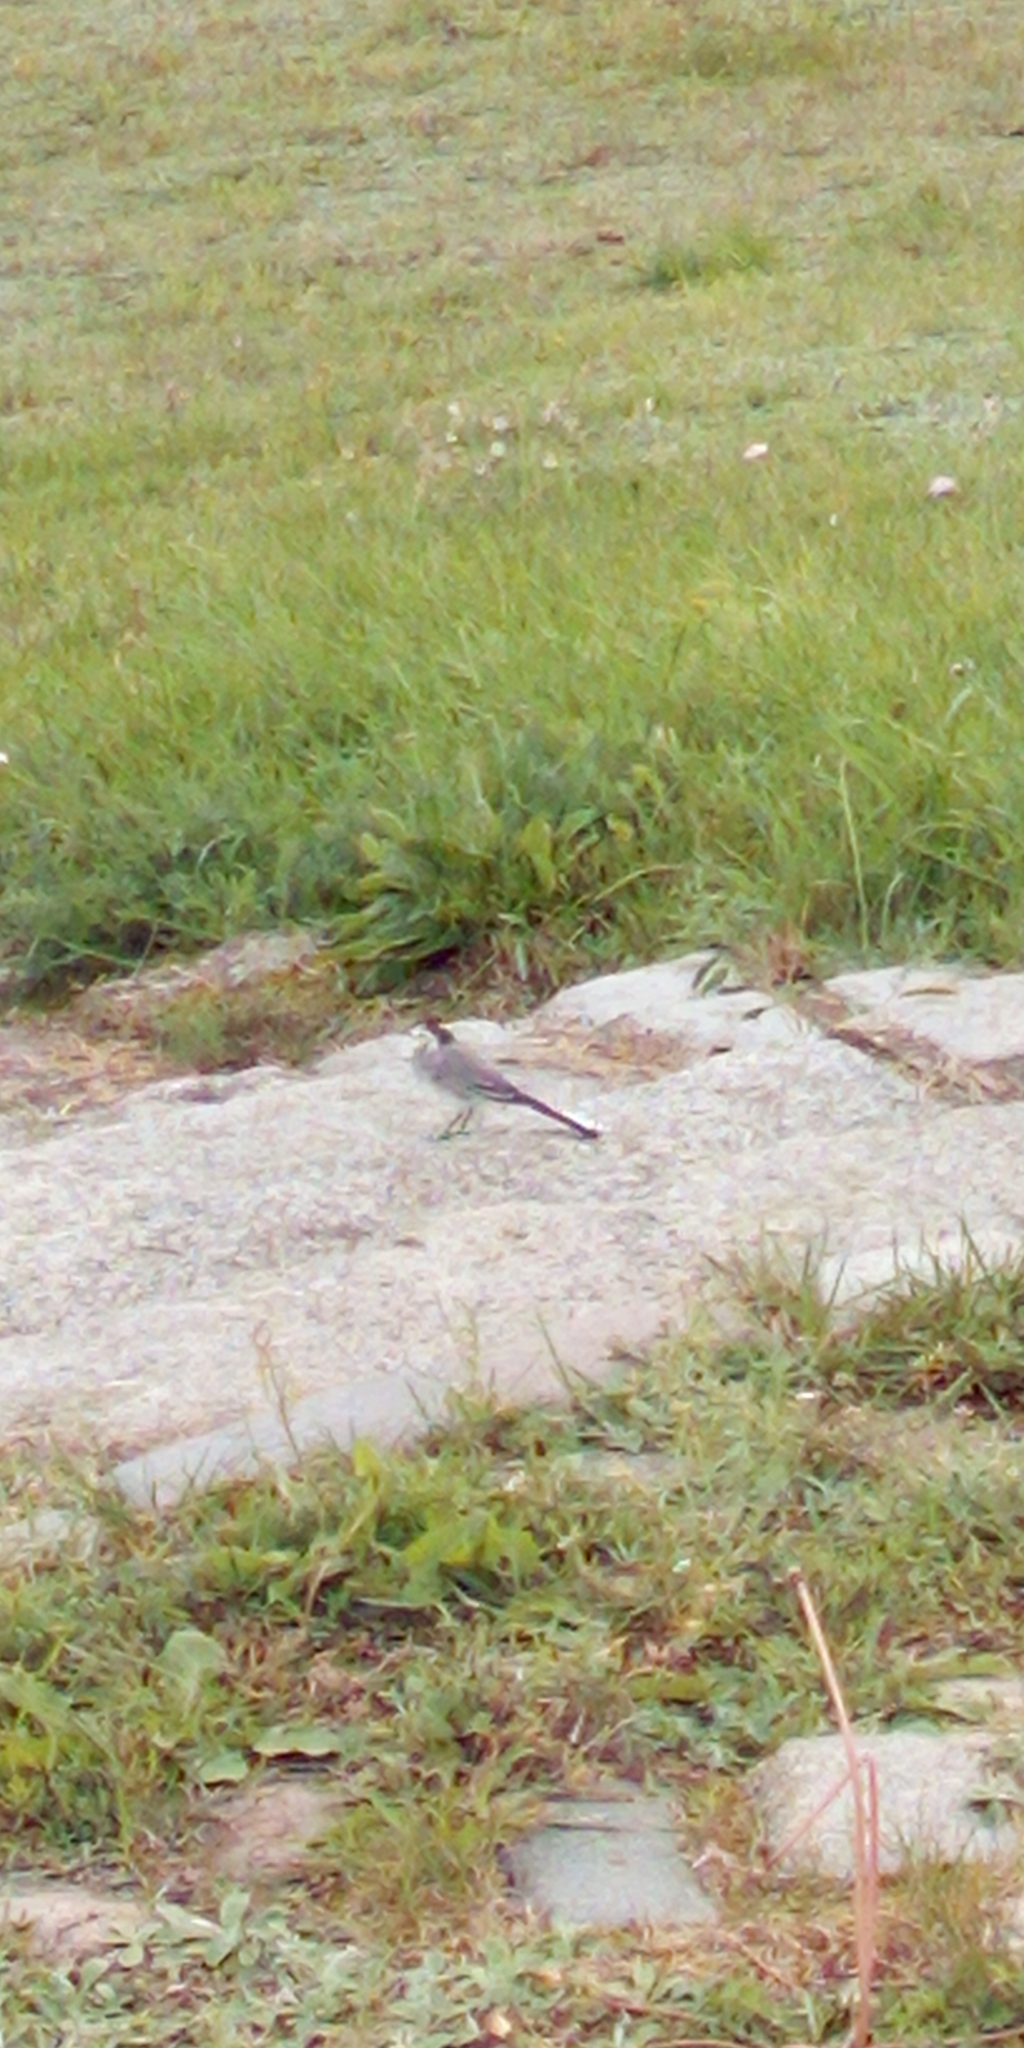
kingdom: Animalia
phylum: Chordata
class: Aves
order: Passeriformes
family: Motacillidae
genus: Motacilla
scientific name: Motacilla alba
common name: White wagtail
